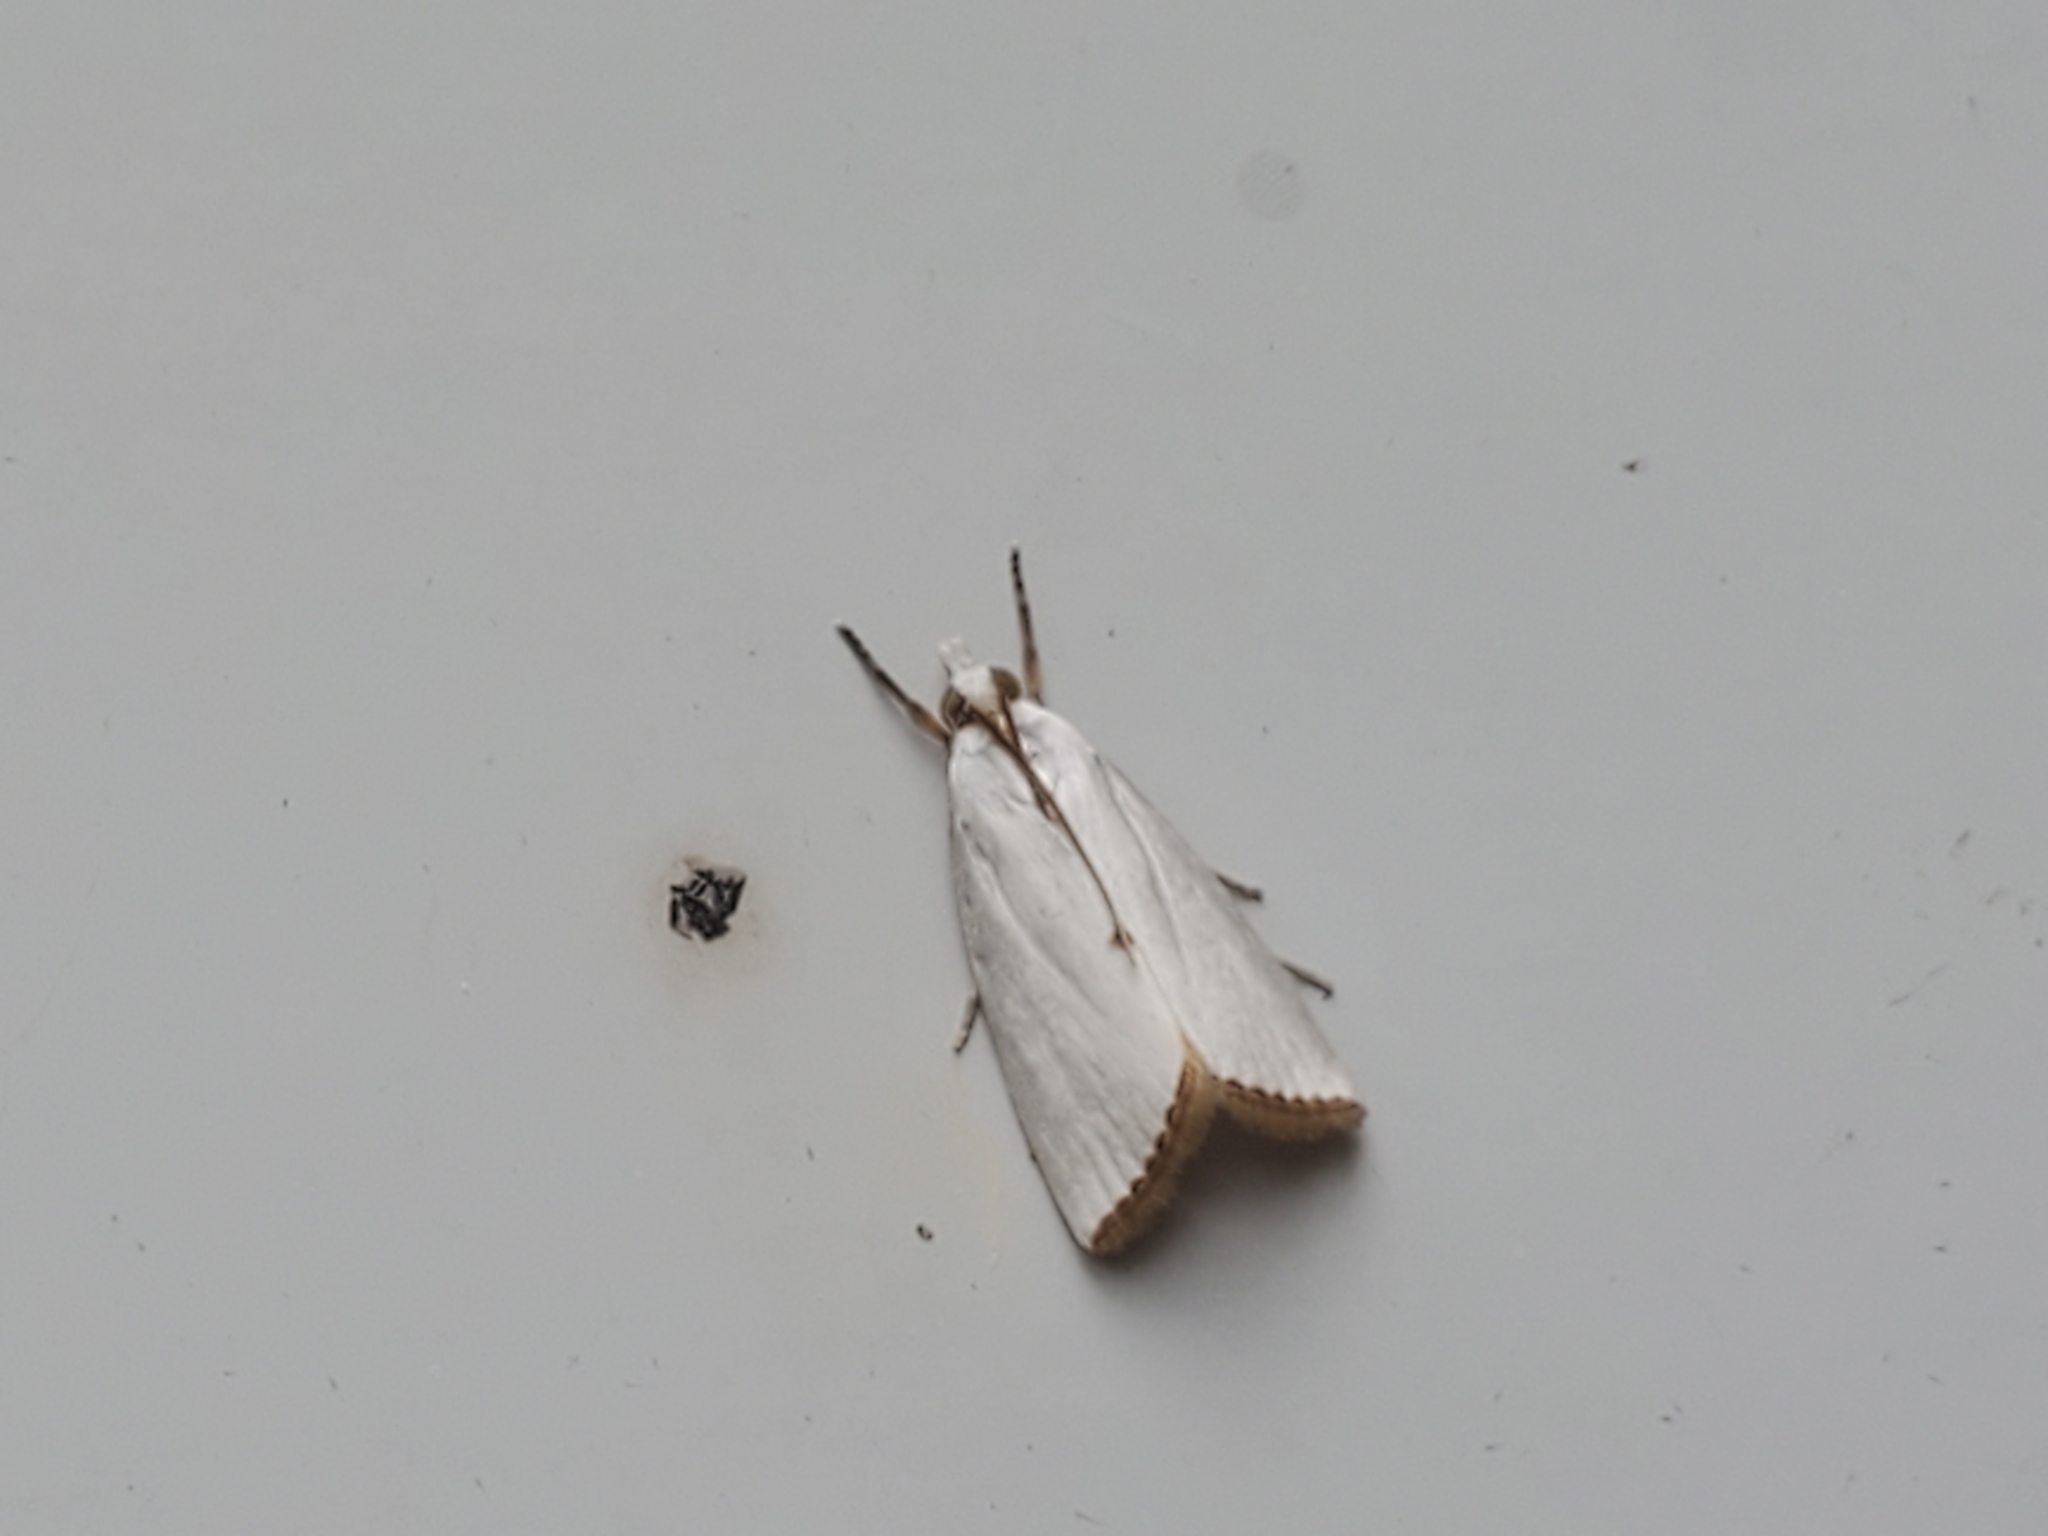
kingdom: Animalia
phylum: Arthropoda
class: Insecta
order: Lepidoptera
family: Crambidae
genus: Argyria
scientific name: Argyria nivalis
